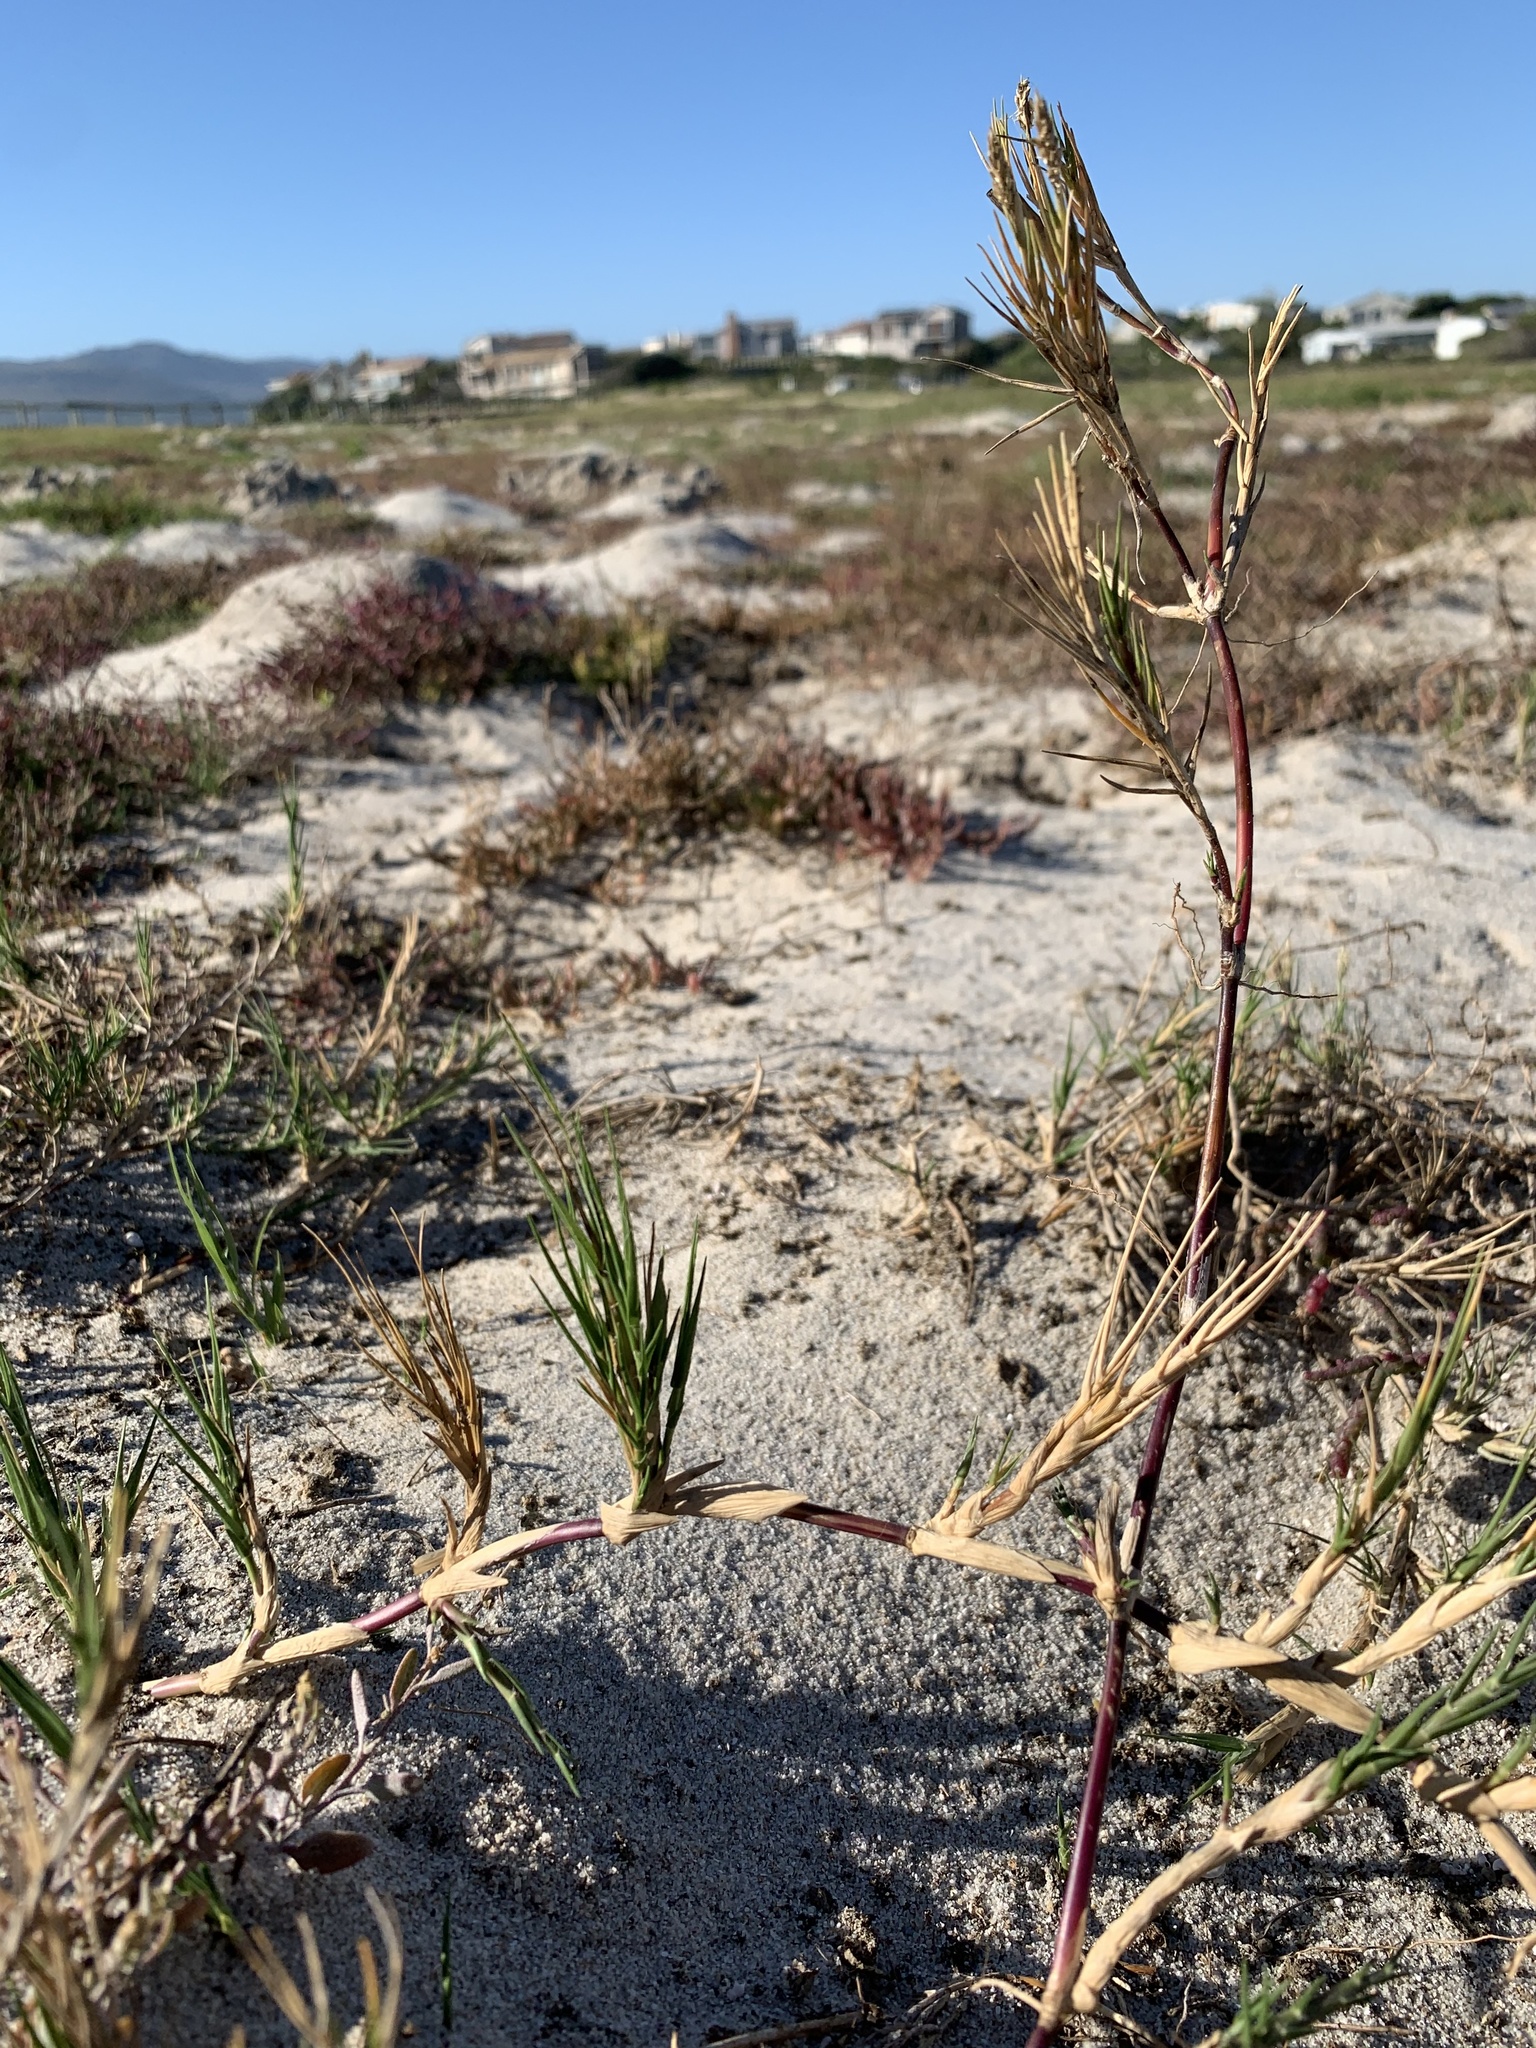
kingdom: Plantae
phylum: Tracheophyta
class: Liliopsida
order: Poales
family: Poaceae
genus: Sporobolus
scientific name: Sporobolus virginicus
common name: Beach dropseed
